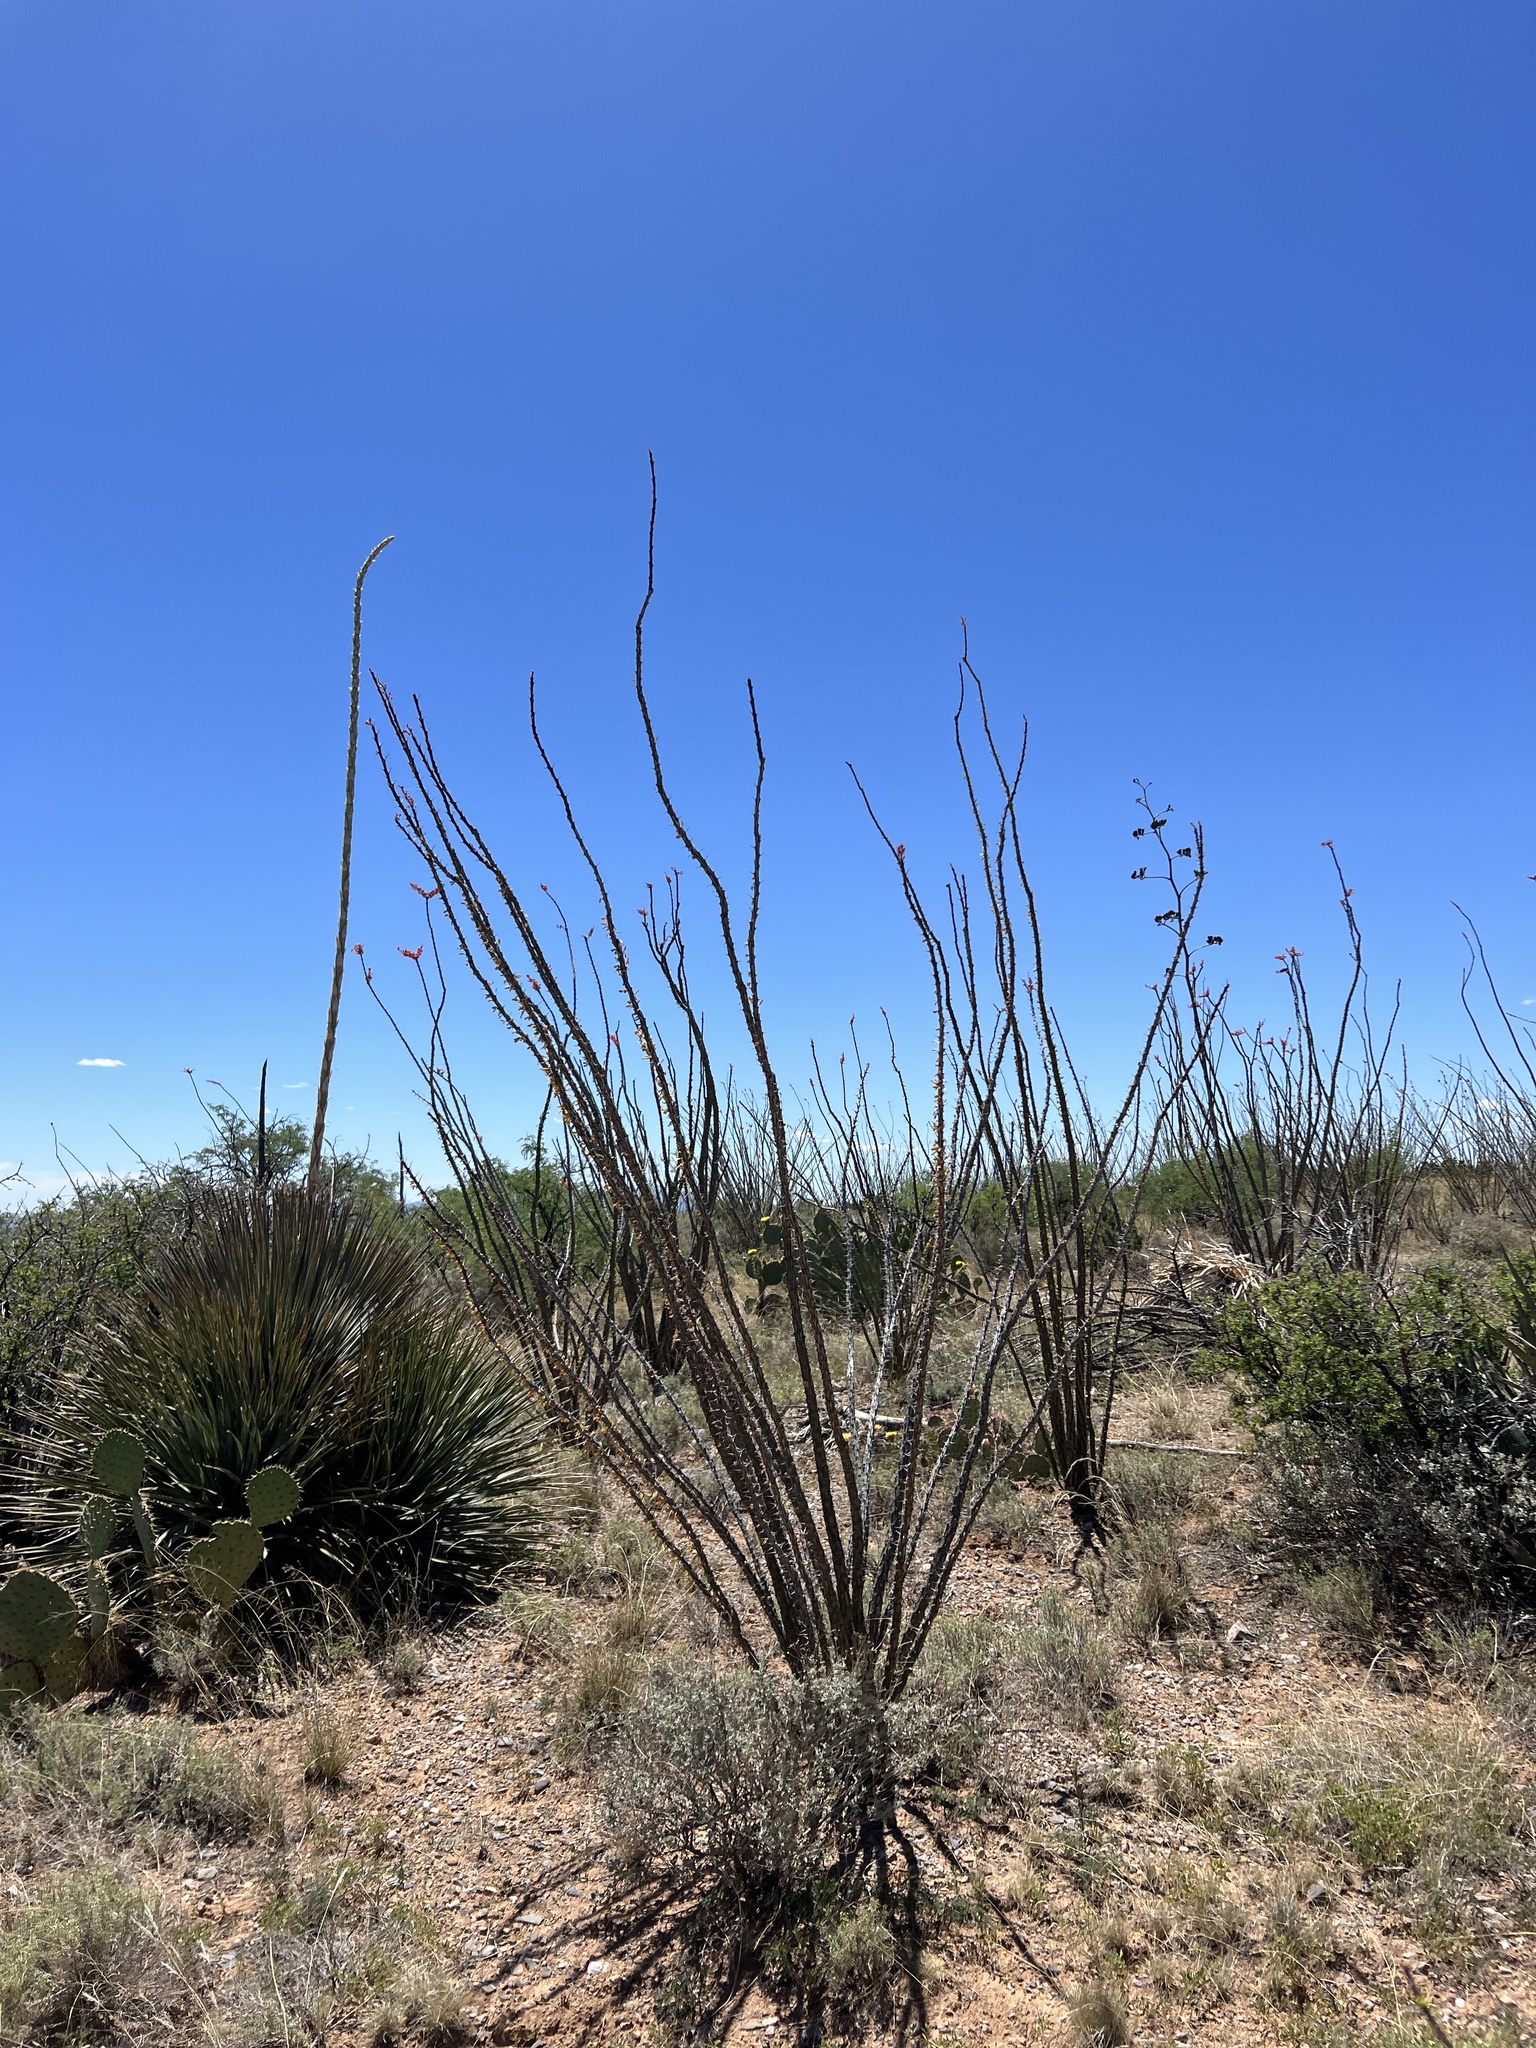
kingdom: Plantae
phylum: Tracheophyta
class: Magnoliopsida
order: Ericales
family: Fouquieriaceae
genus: Fouquieria
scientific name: Fouquieria splendens
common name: Vine-cactus
